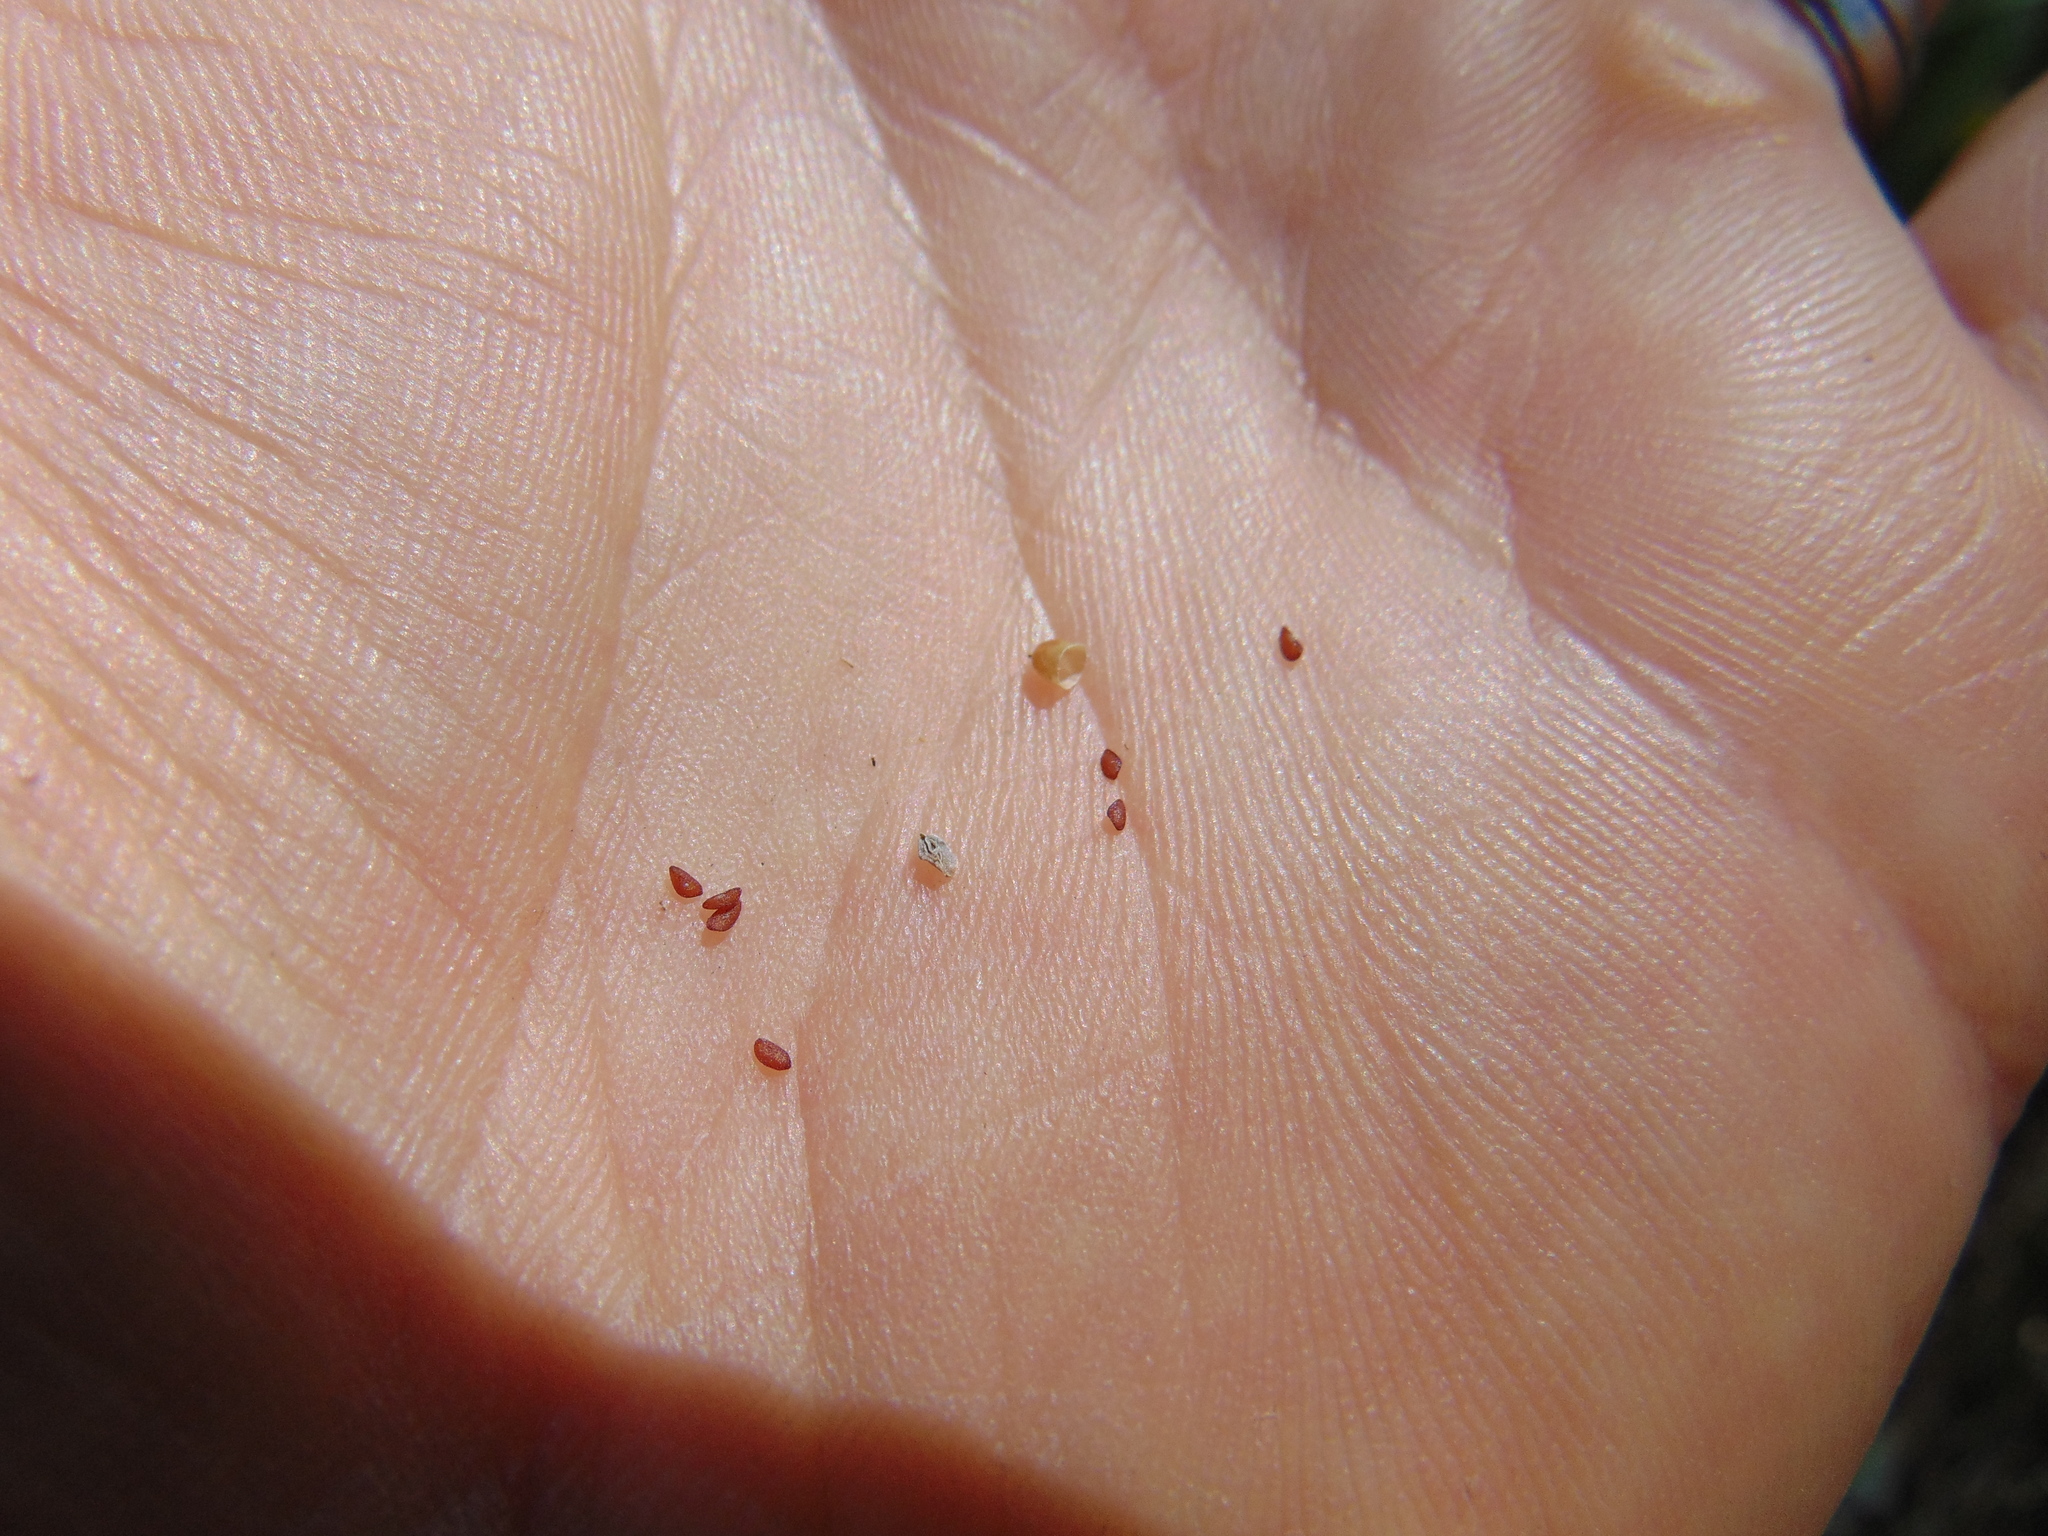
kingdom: Plantae
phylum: Tracheophyta
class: Magnoliopsida
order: Lamiales
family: Plantaginaceae
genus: Plantago
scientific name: Plantago major
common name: Common plantain
